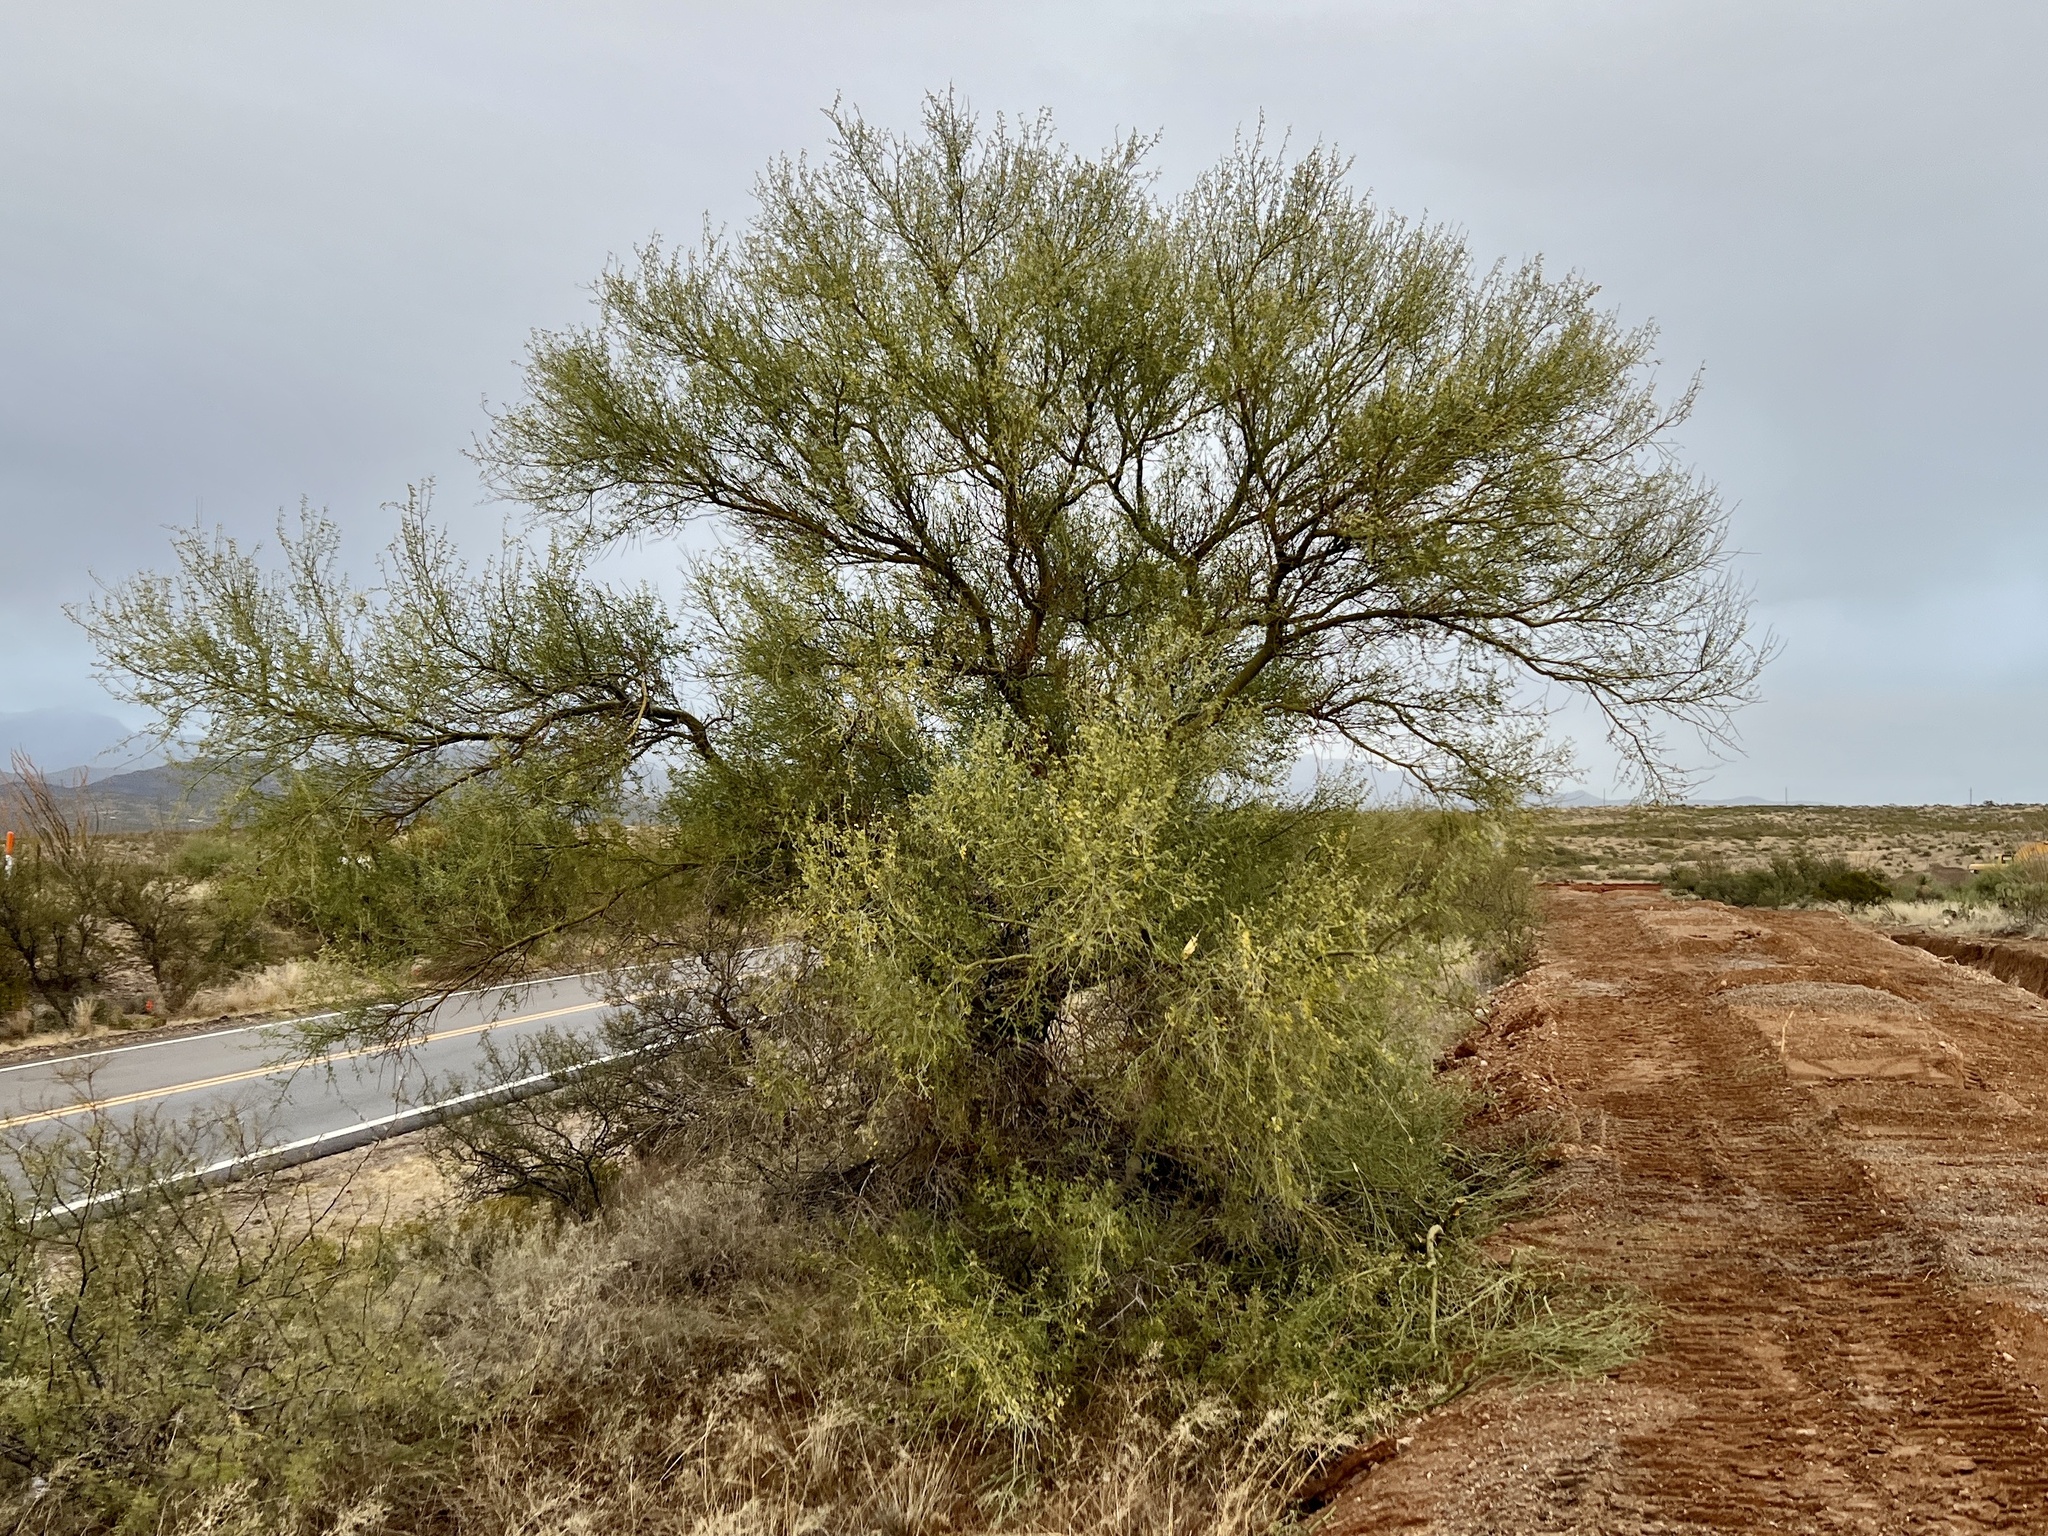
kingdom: Plantae
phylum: Tracheophyta
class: Magnoliopsida
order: Fabales
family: Fabaceae
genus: Parkinsonia
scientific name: Parkinsonia microphylla
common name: Yellow paloverde
